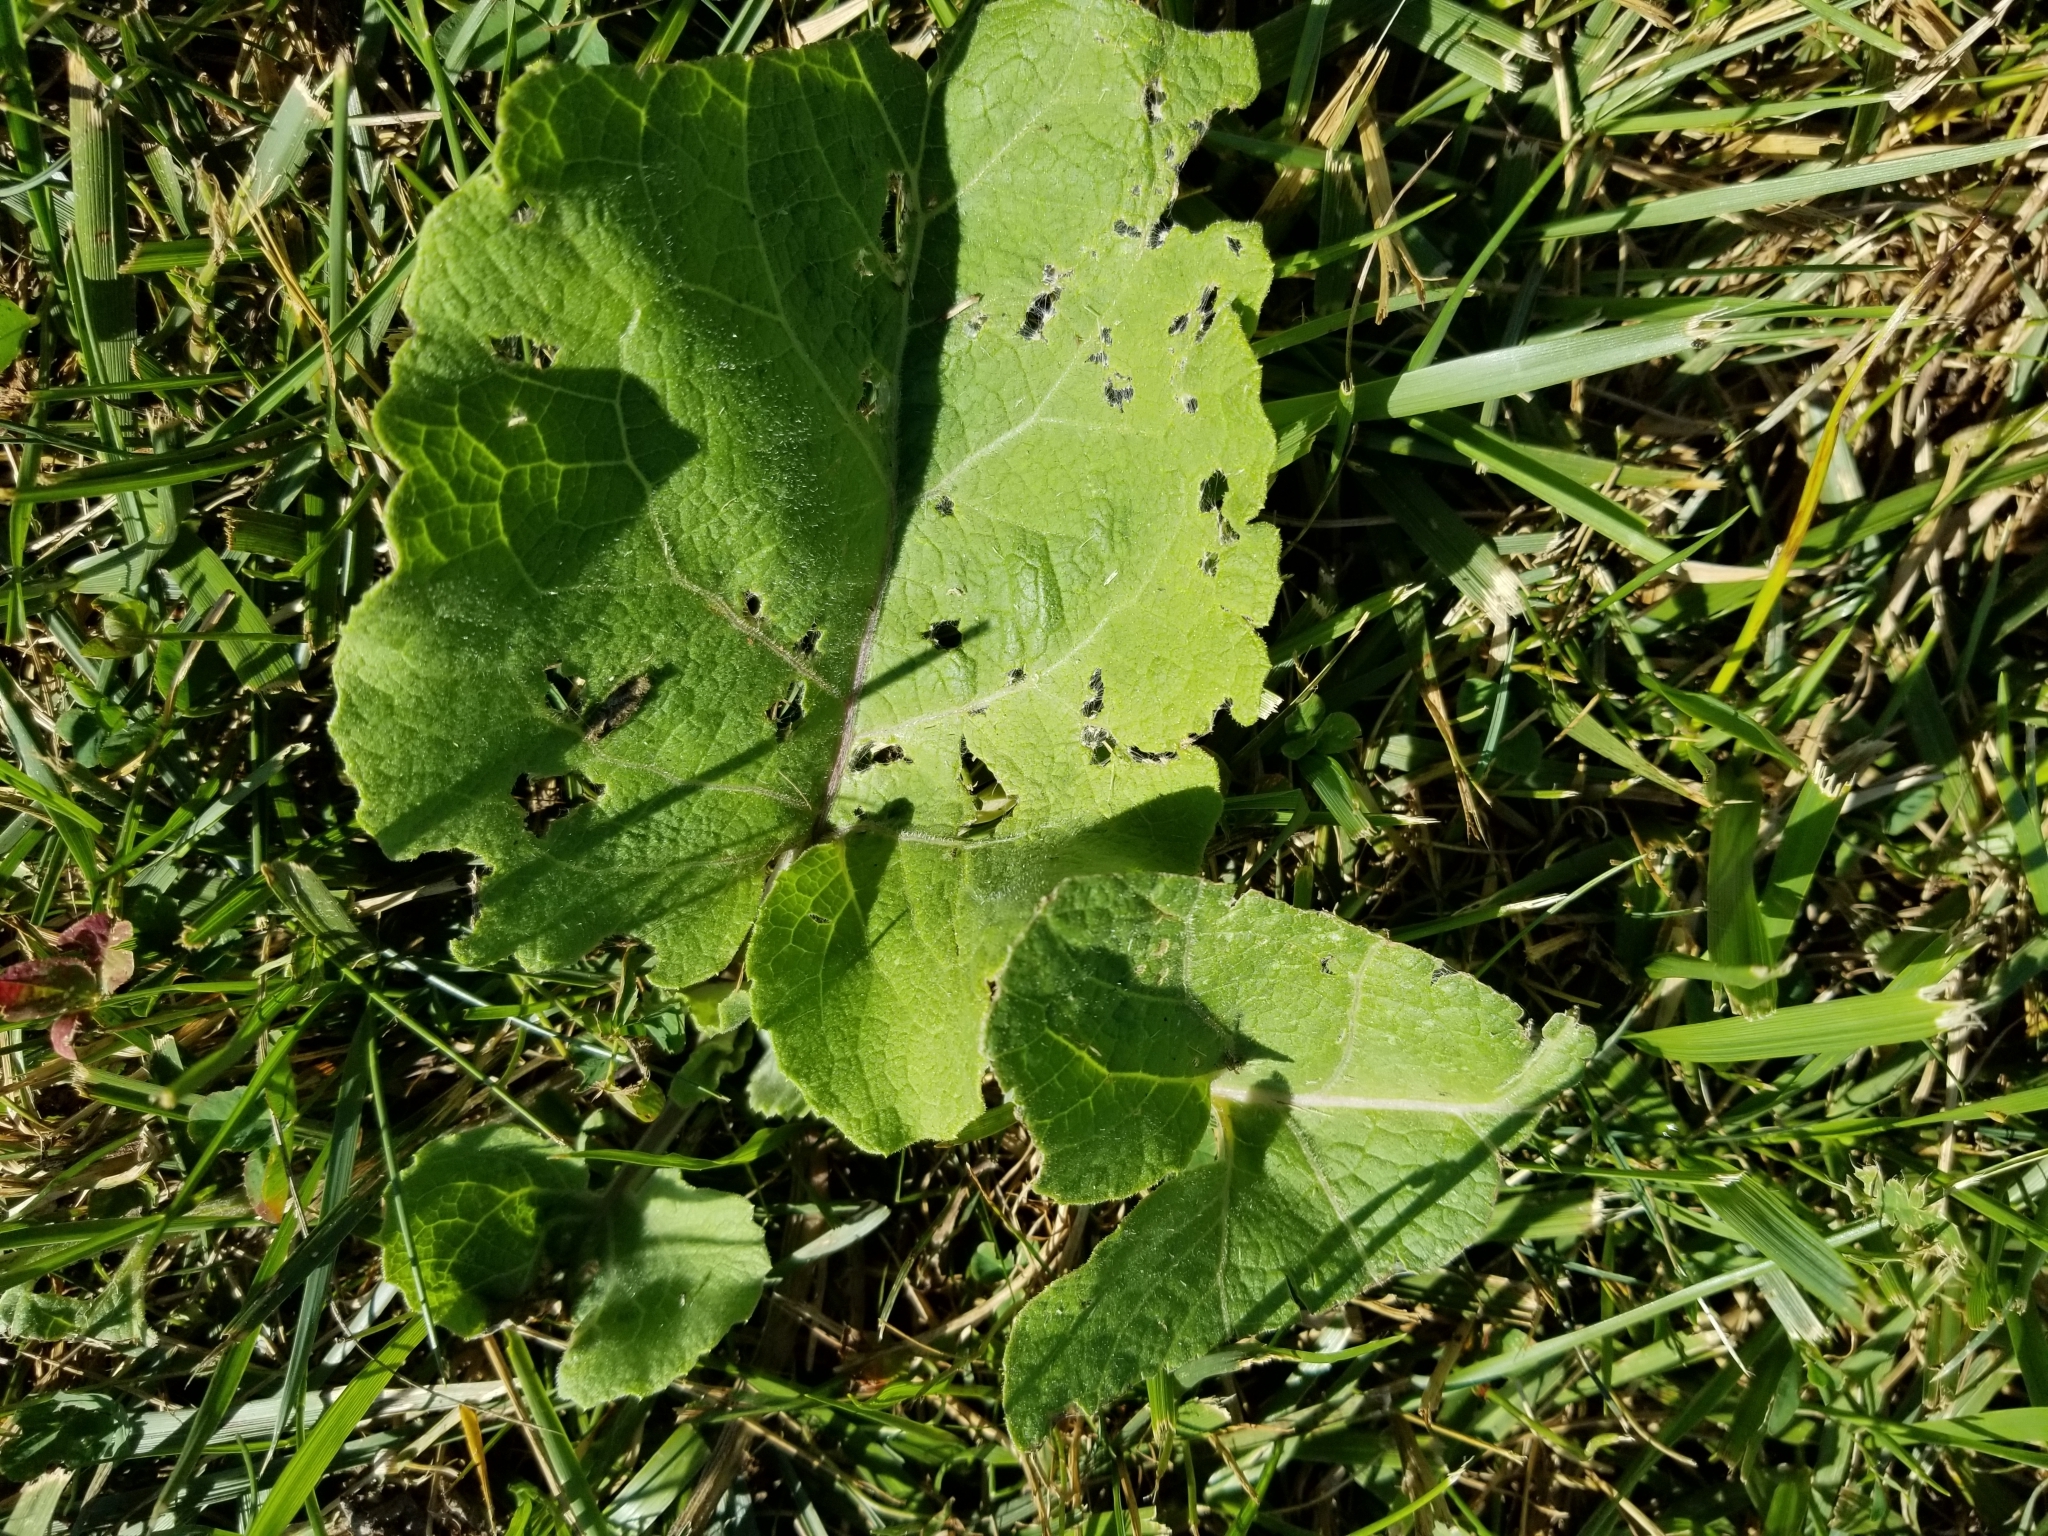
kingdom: Plantae
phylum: Tracheophyta
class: Magnoliopsida
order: Asterales
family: Asteraceae
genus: Arctium
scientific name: Arctium
